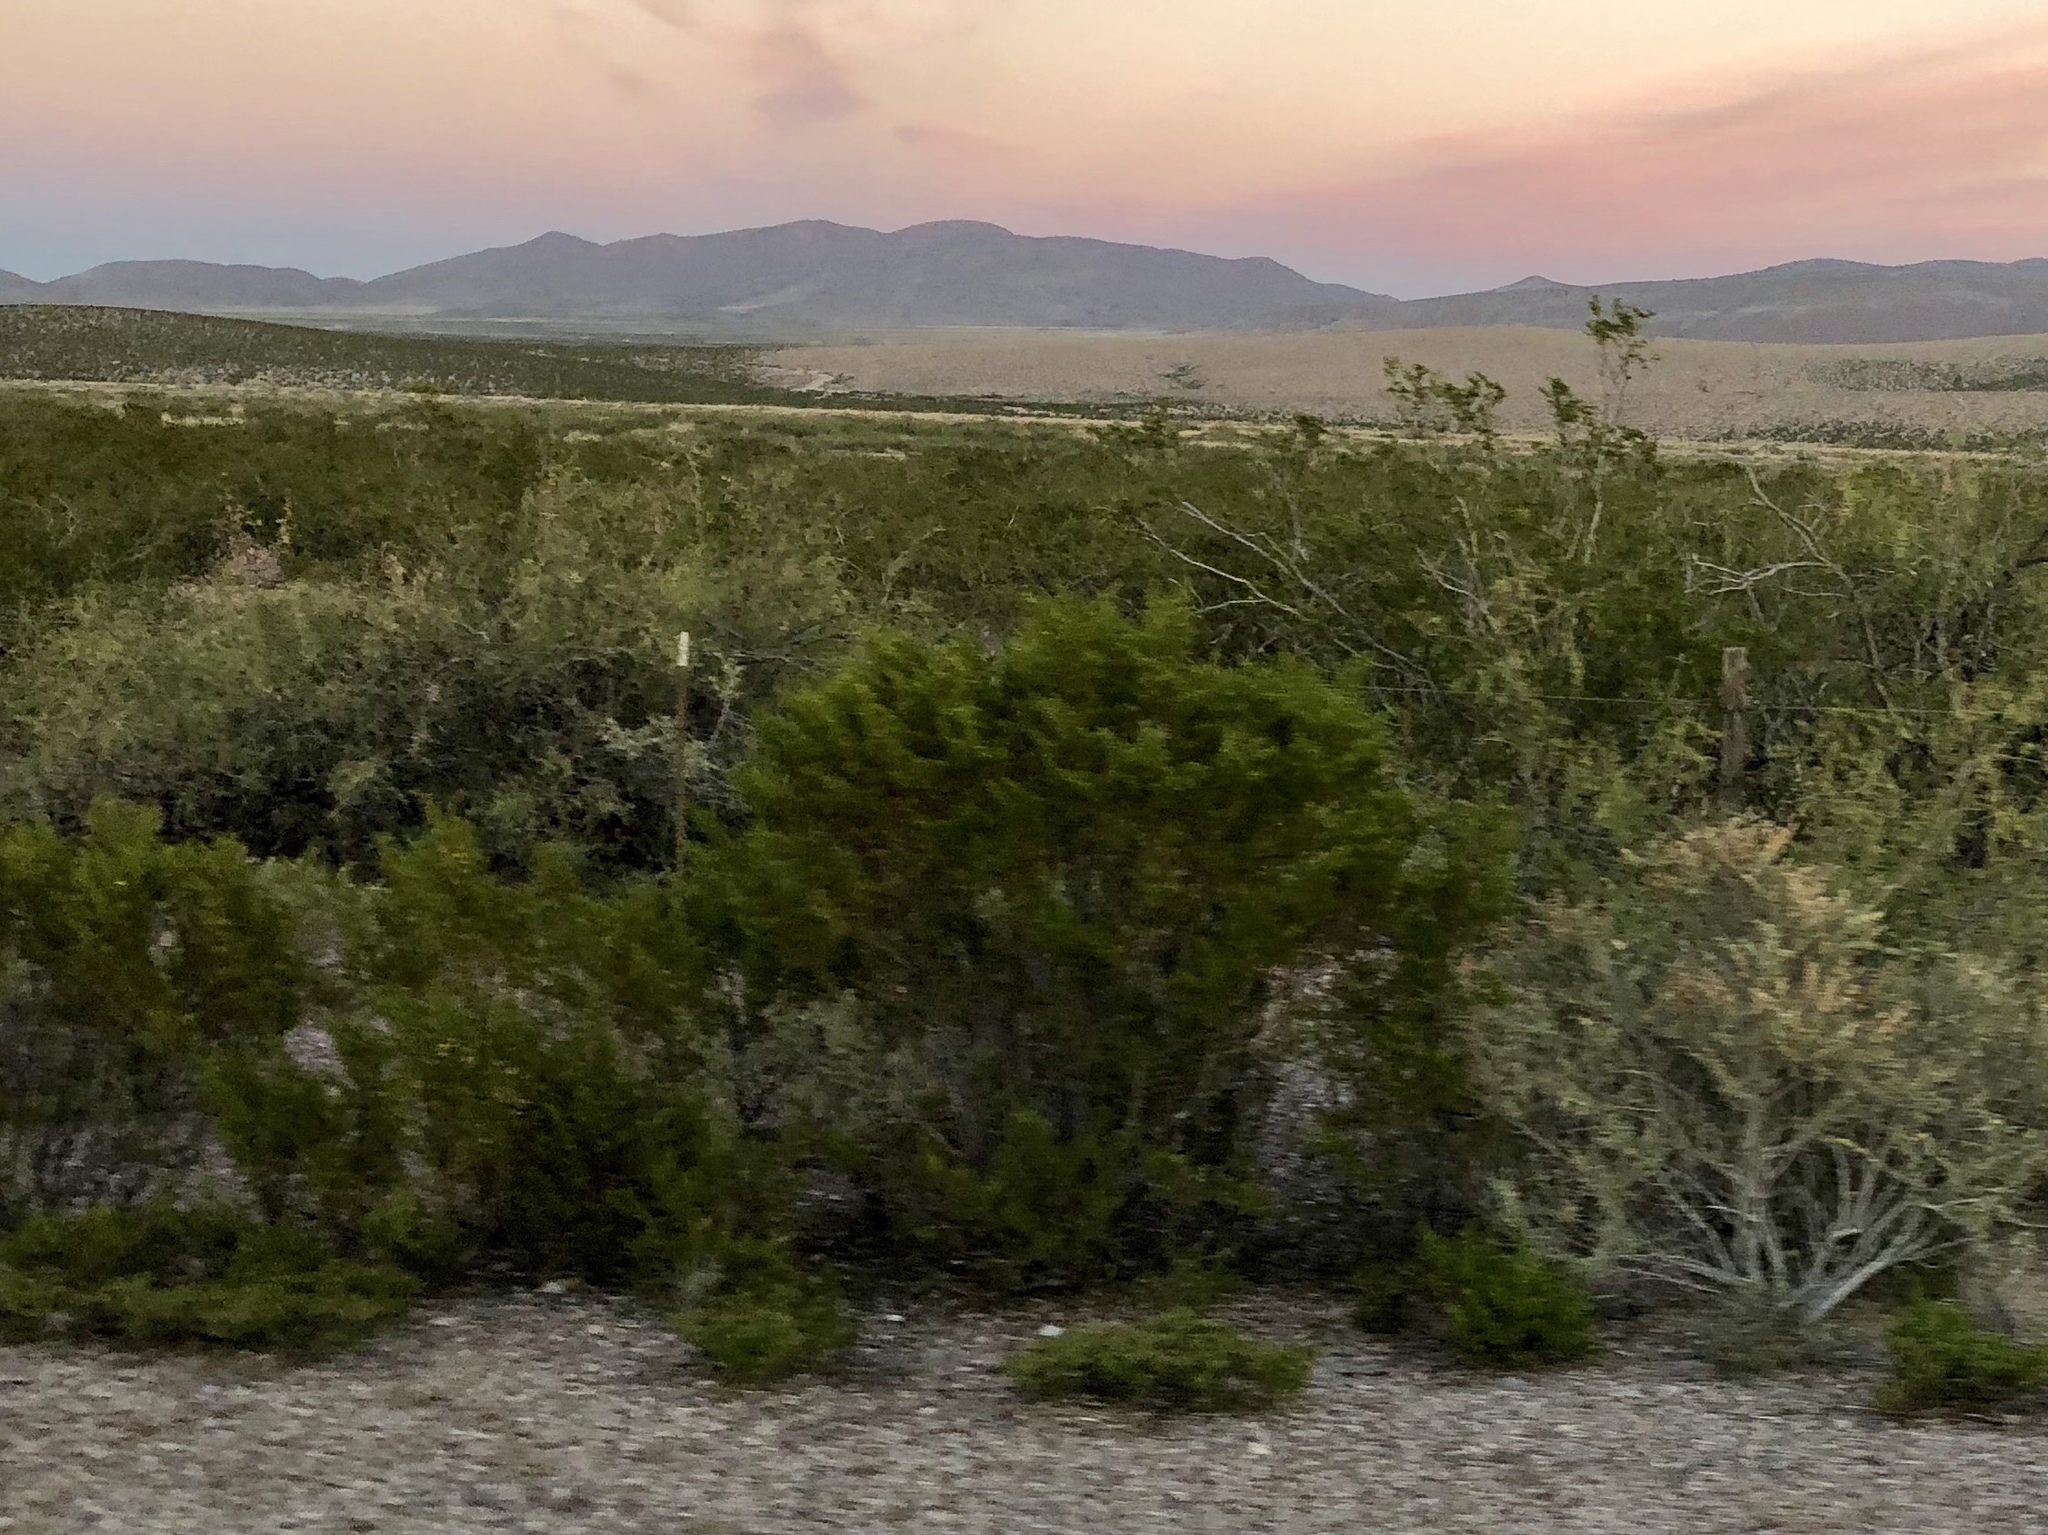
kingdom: Plantae
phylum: Tracheophyta
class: Magnoliopsida
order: Zygophyllales
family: Zygophyllaceae
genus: Larrea
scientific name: Larrea tridentata
